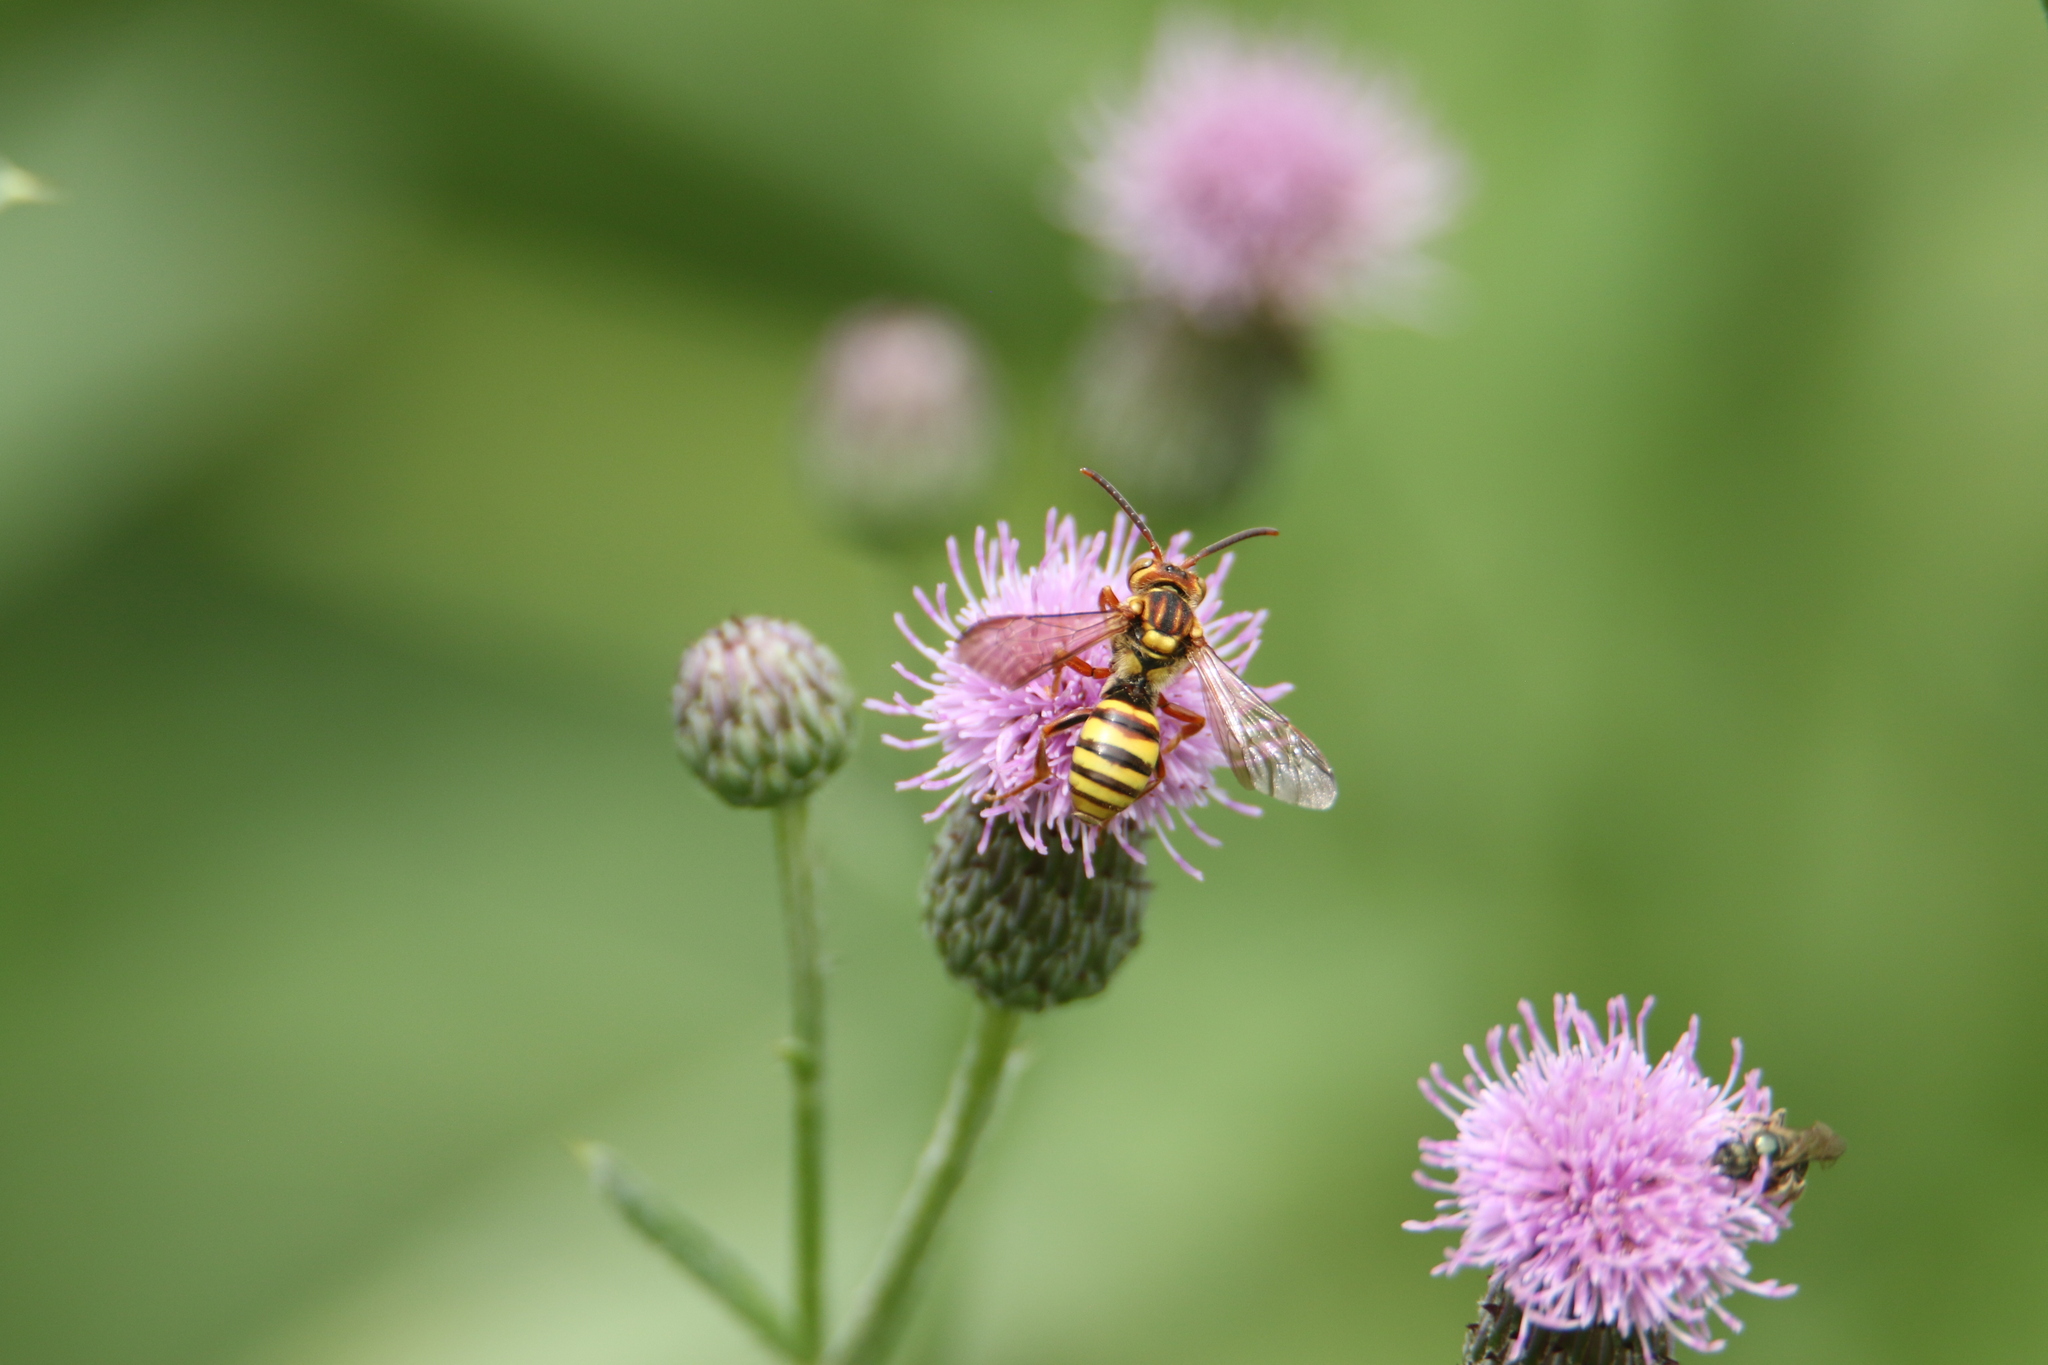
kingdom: Animalia
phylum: Arthropoda
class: Insecta
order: Hymenoptera
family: Apidae
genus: Nomada
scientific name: Nomada luteoloides
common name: Black-and-yellow nomad bee
